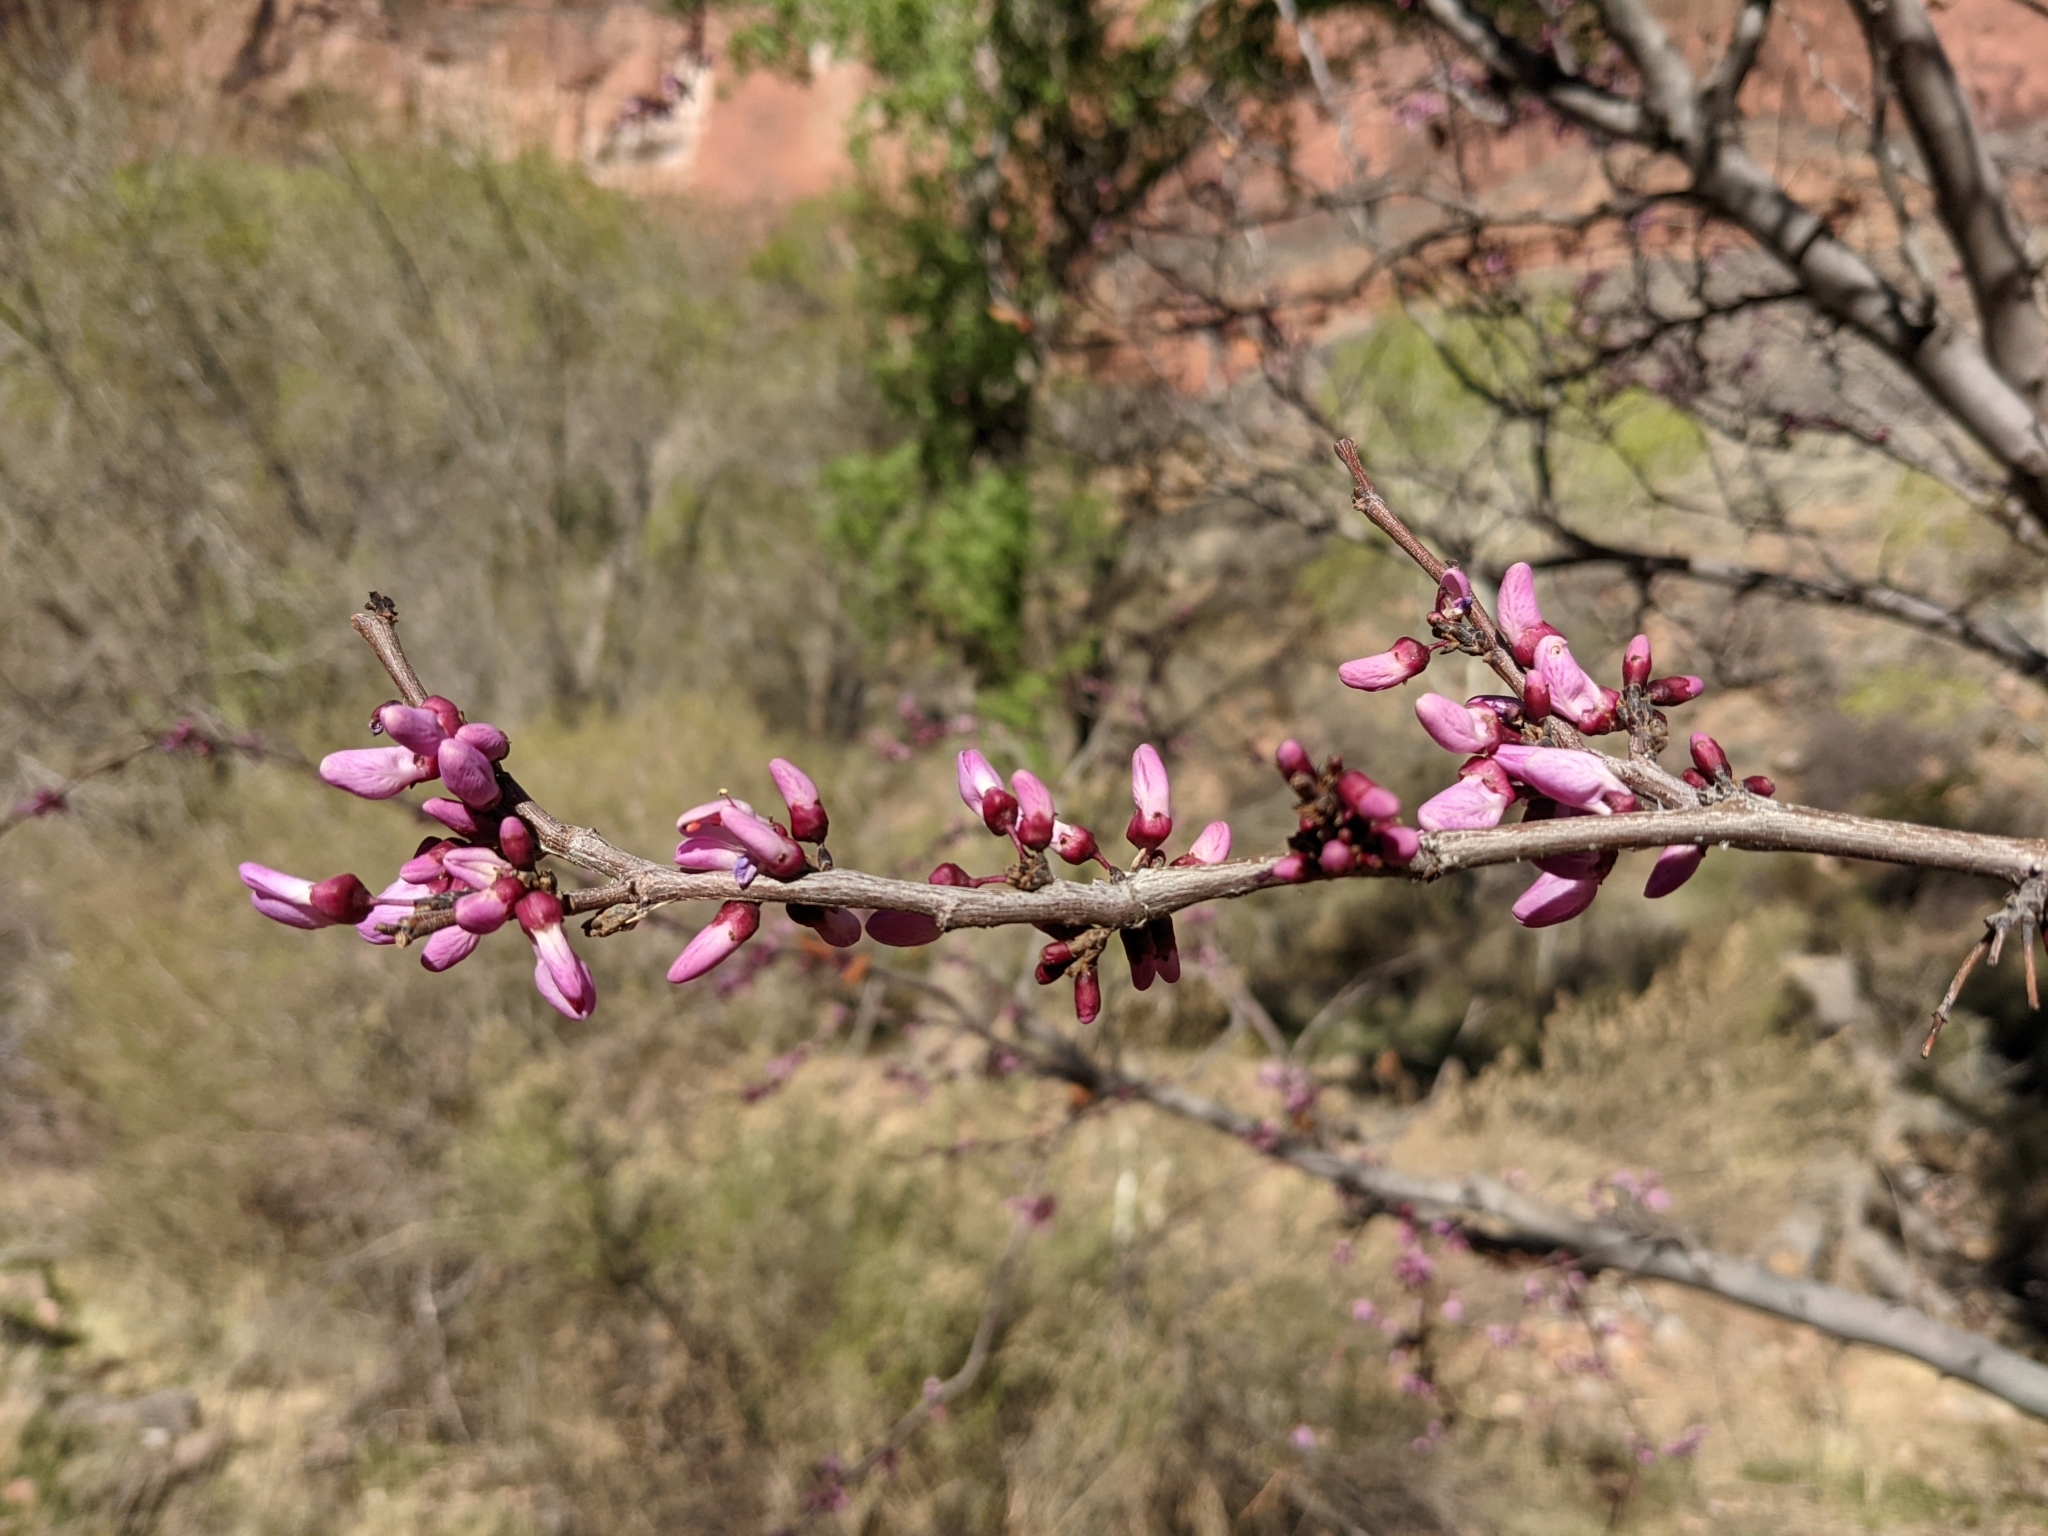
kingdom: Plantae
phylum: Tracheophyta
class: Magnoliopsida
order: Fabales
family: Fabaceae
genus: Cercis
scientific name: Cercis occidentalis
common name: California redbud
